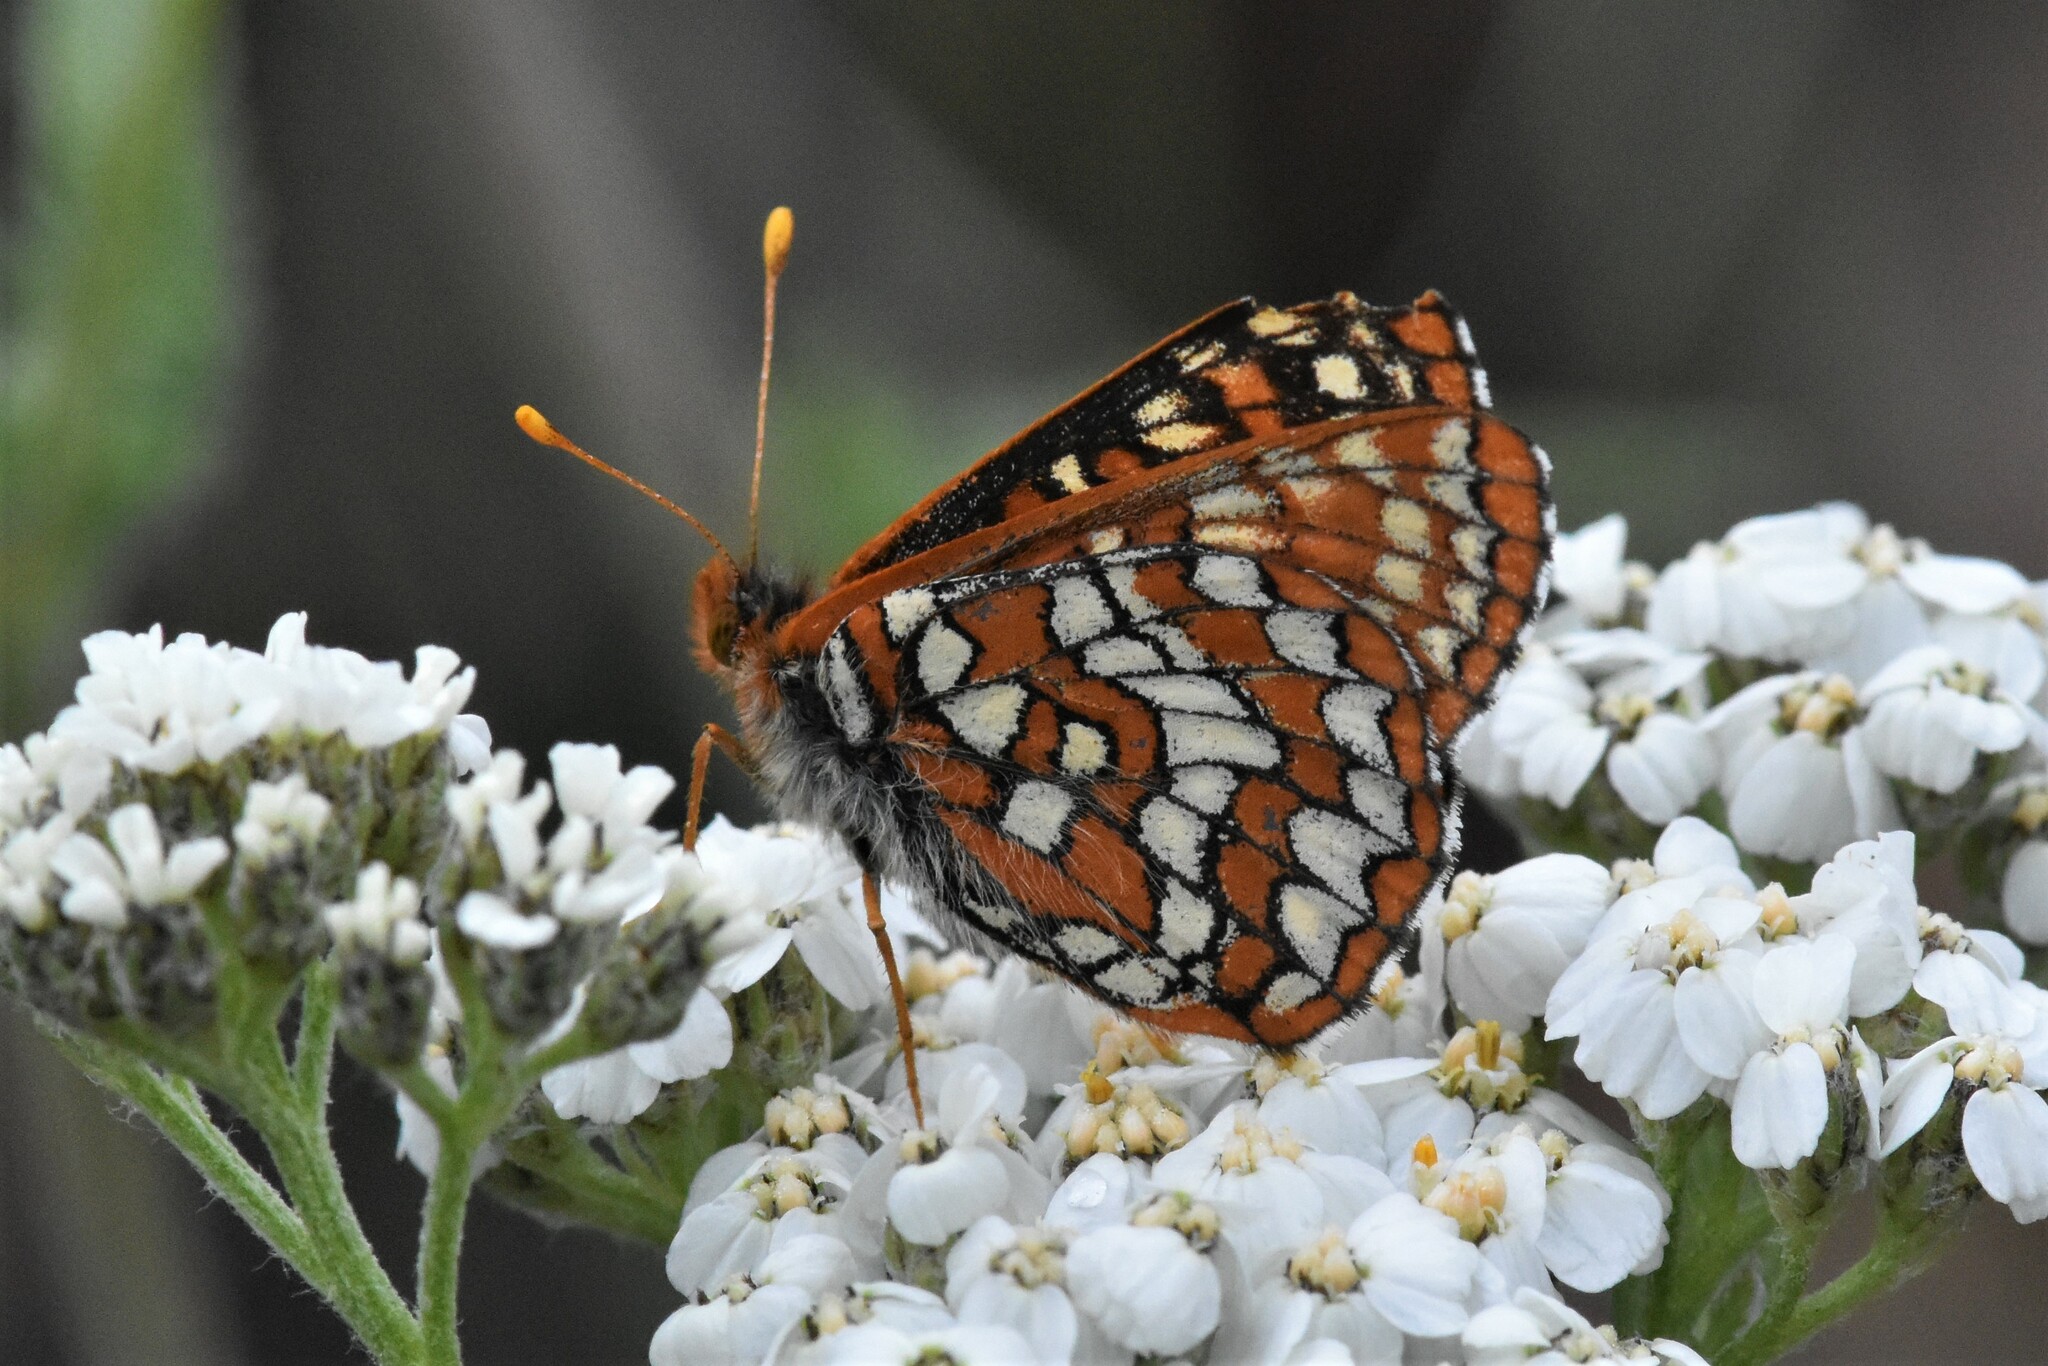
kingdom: Animalia
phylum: Arthropoda
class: Insecta
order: Lepidoptera
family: Nymphalidae
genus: Occidryas
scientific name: Occidryas anicia
